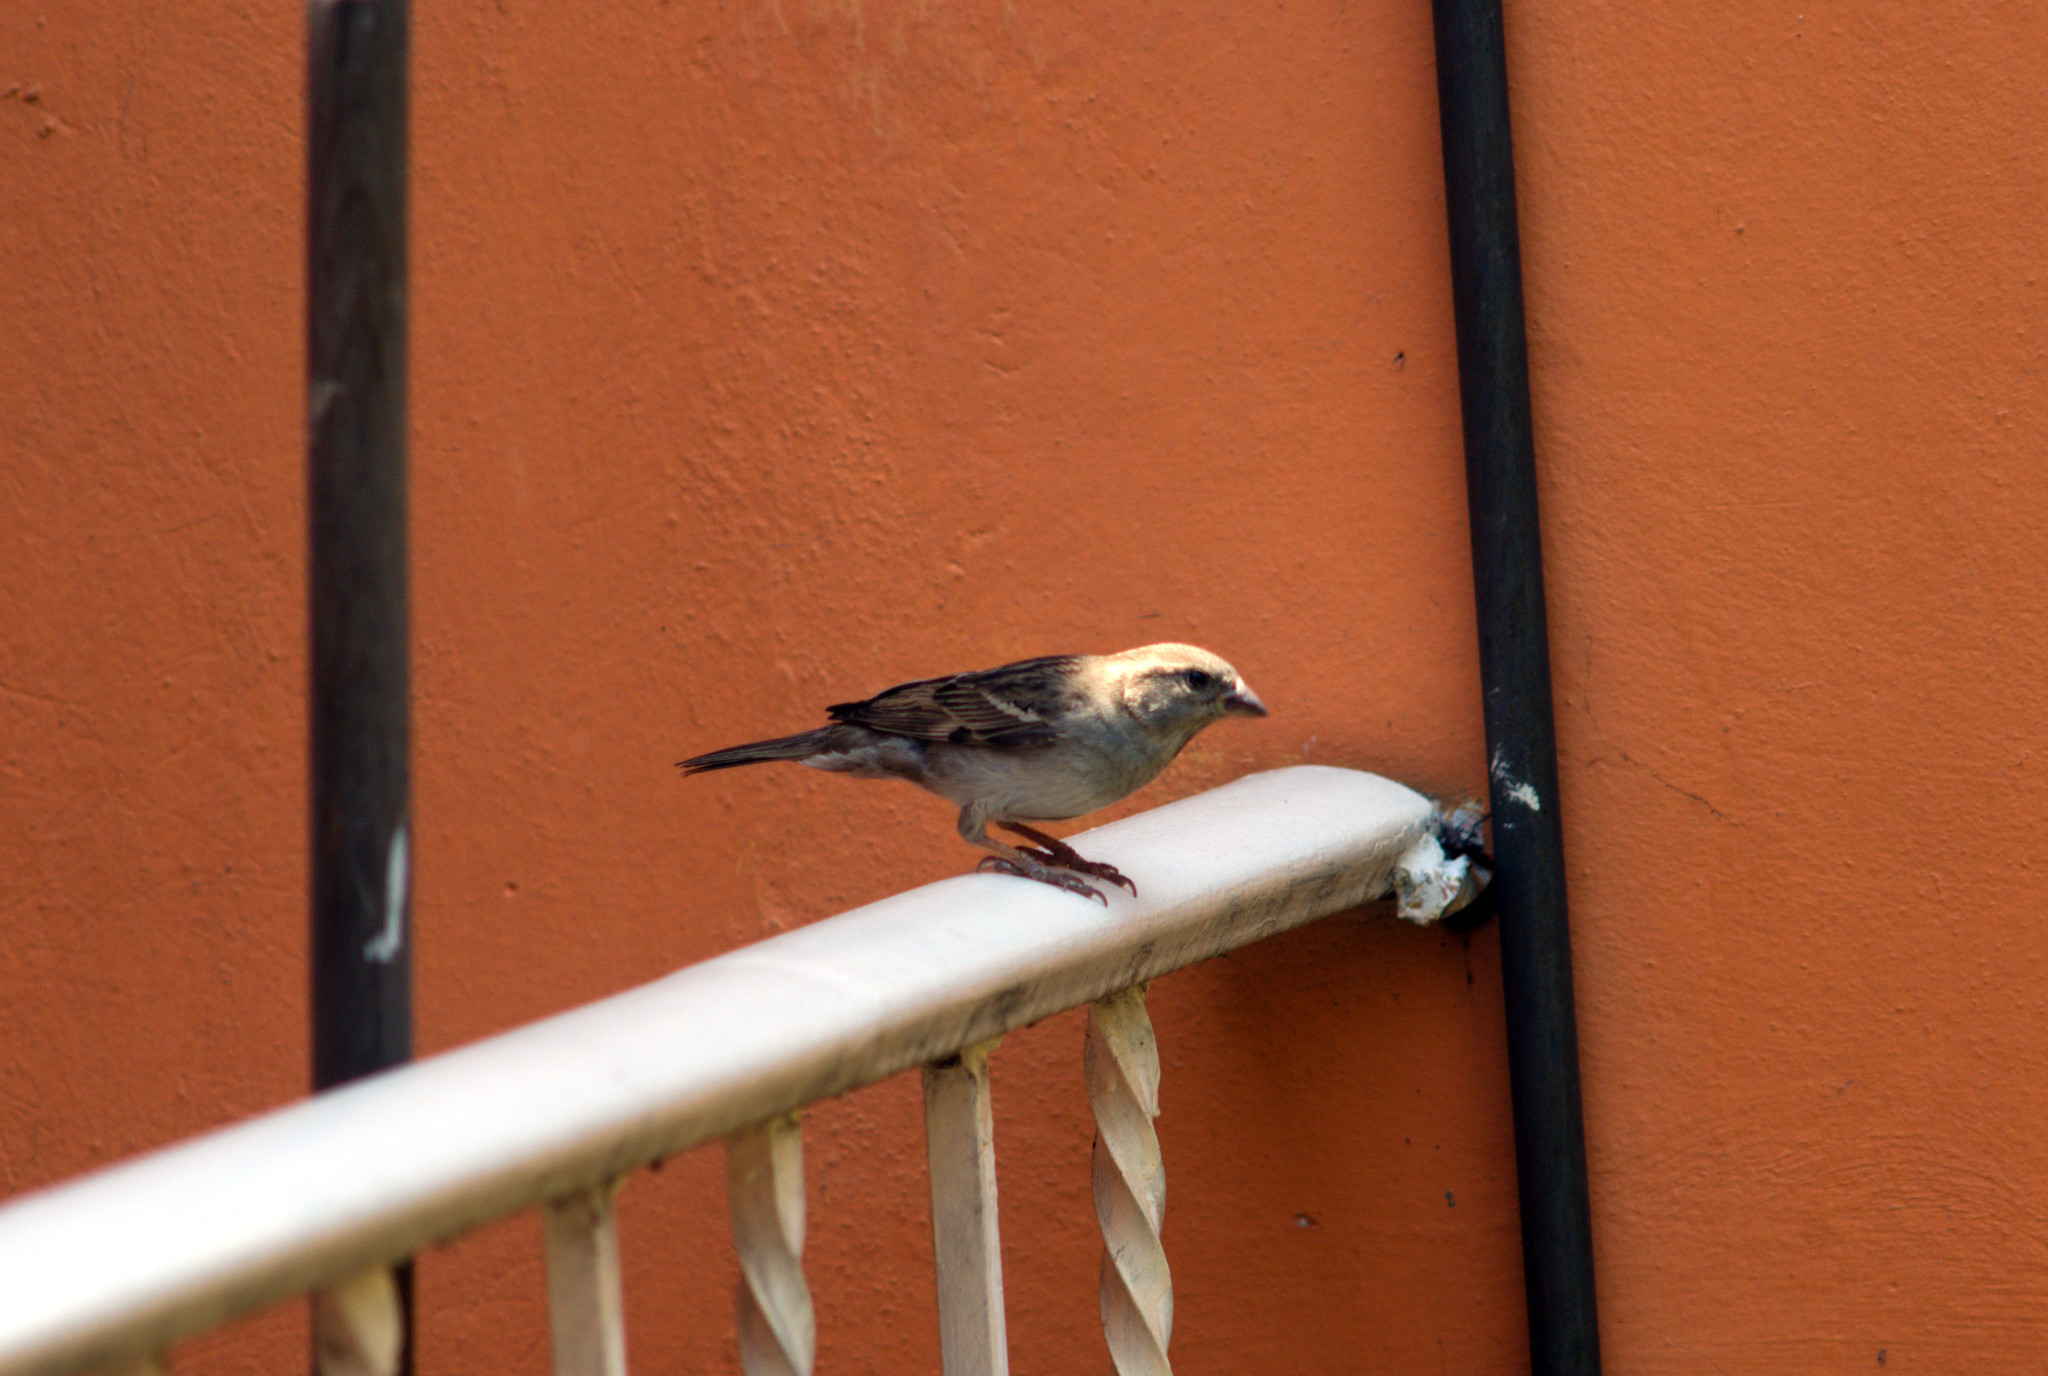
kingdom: Animalia
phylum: Chordata
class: Aves
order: Passeriformes
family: Passeridae
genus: Passer
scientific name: Passer domesticus
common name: House sparrow
